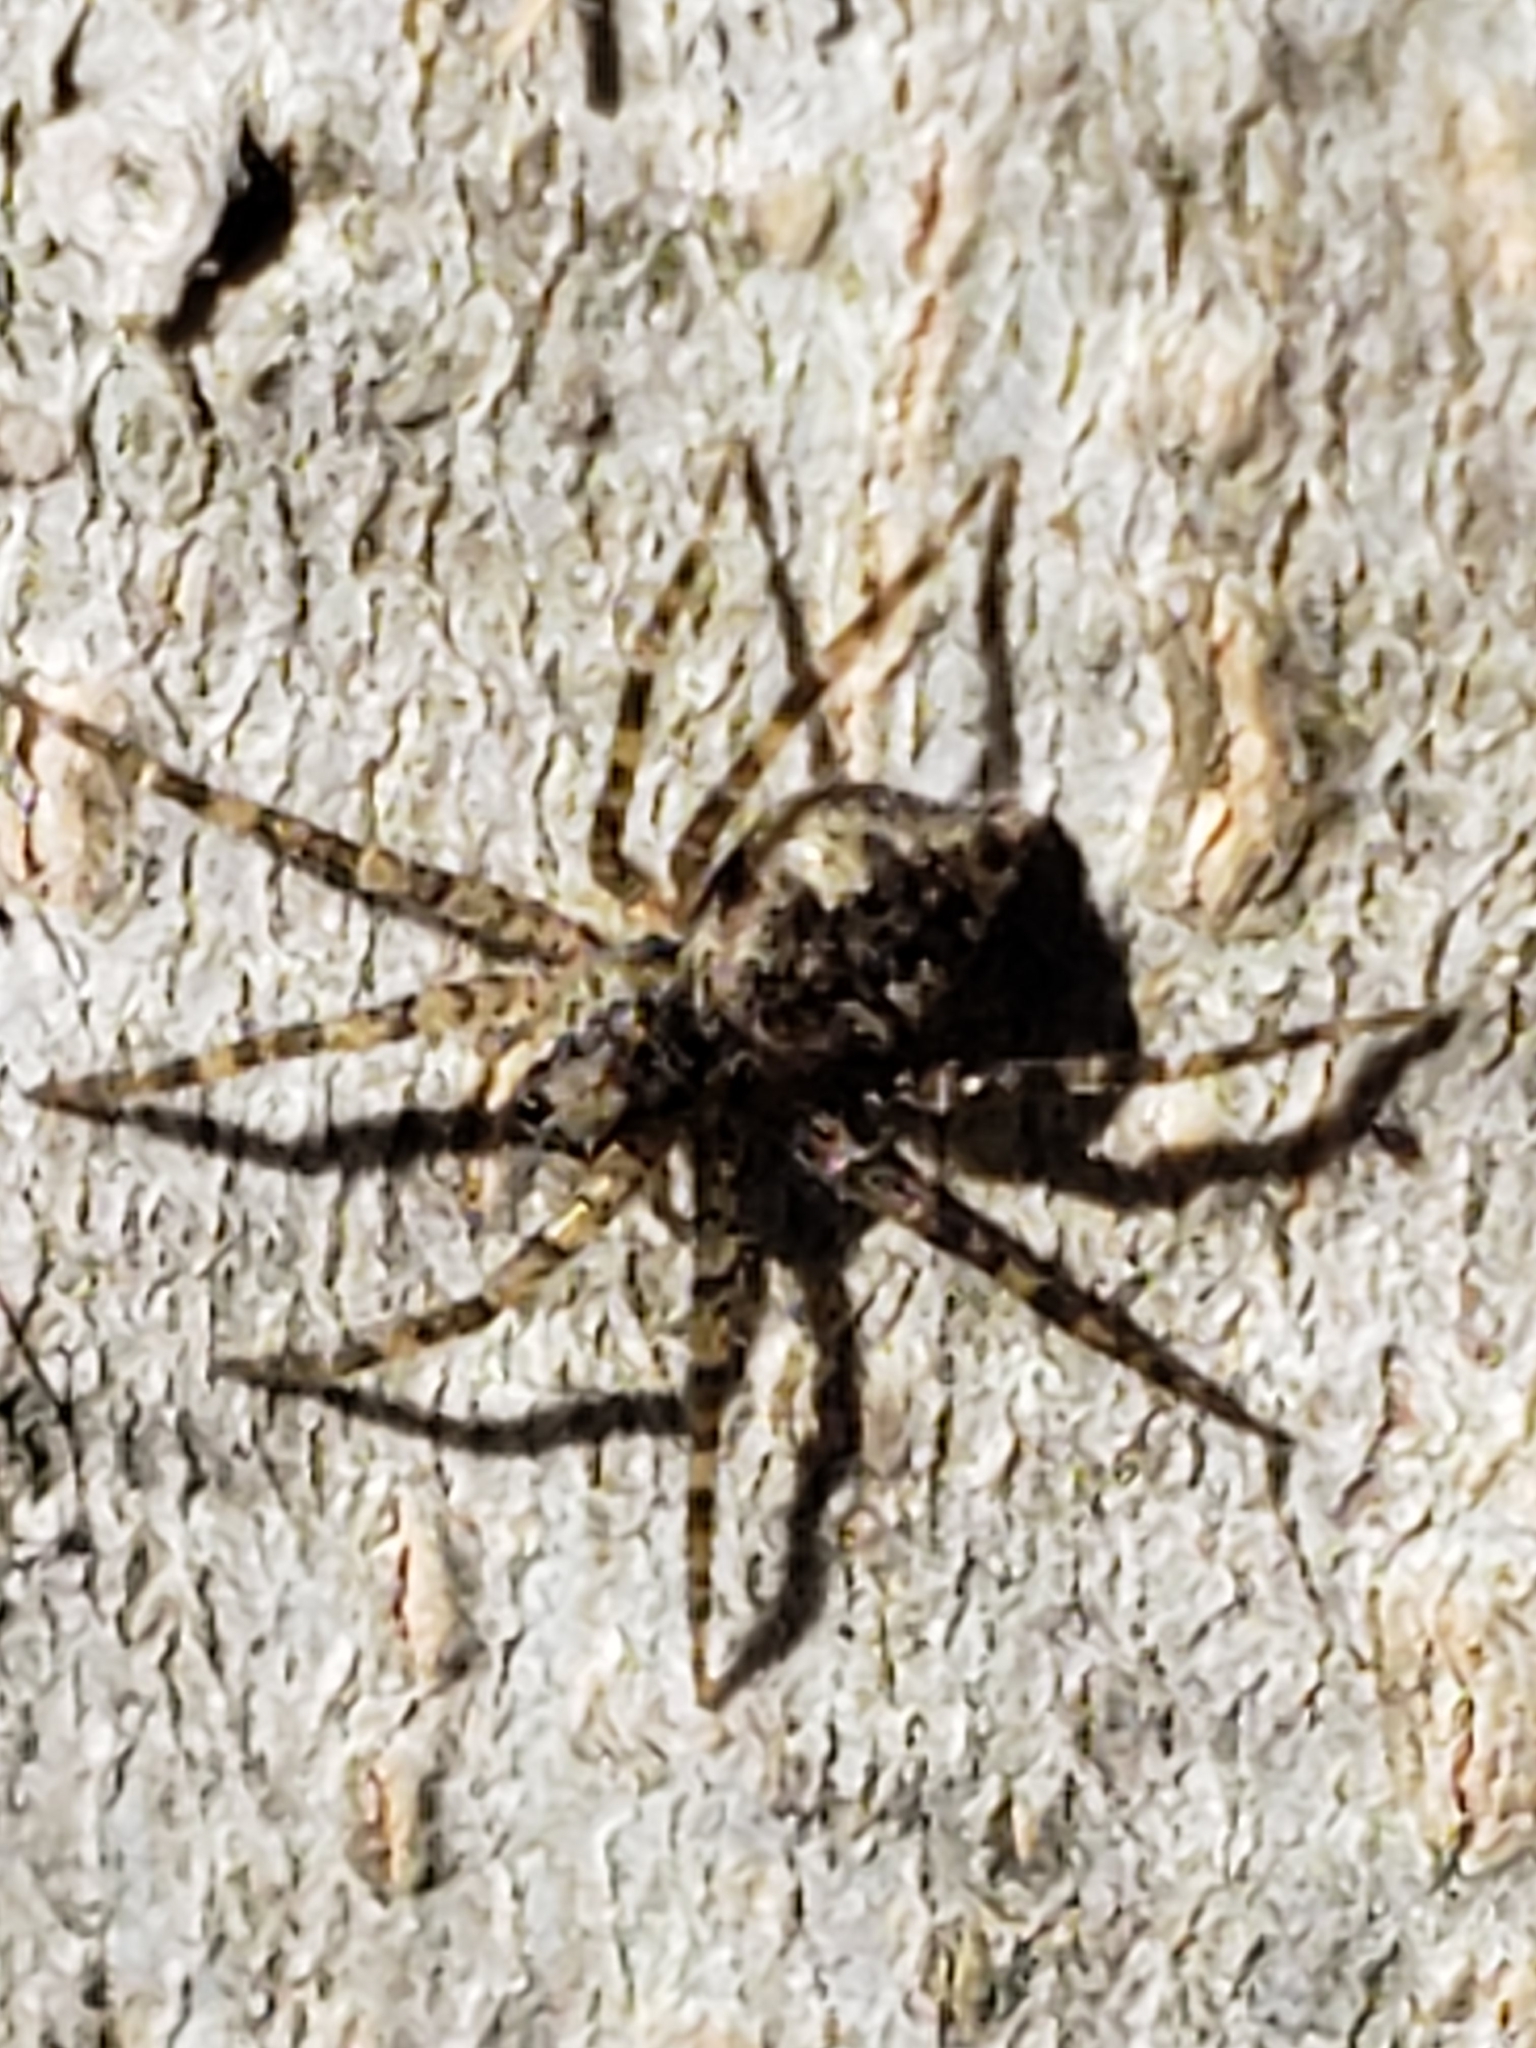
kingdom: Animalia
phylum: Arthropoda
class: Arachnida
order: Araneae
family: Pisauridae
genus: Dolomedes
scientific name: Dolomedes albineus
